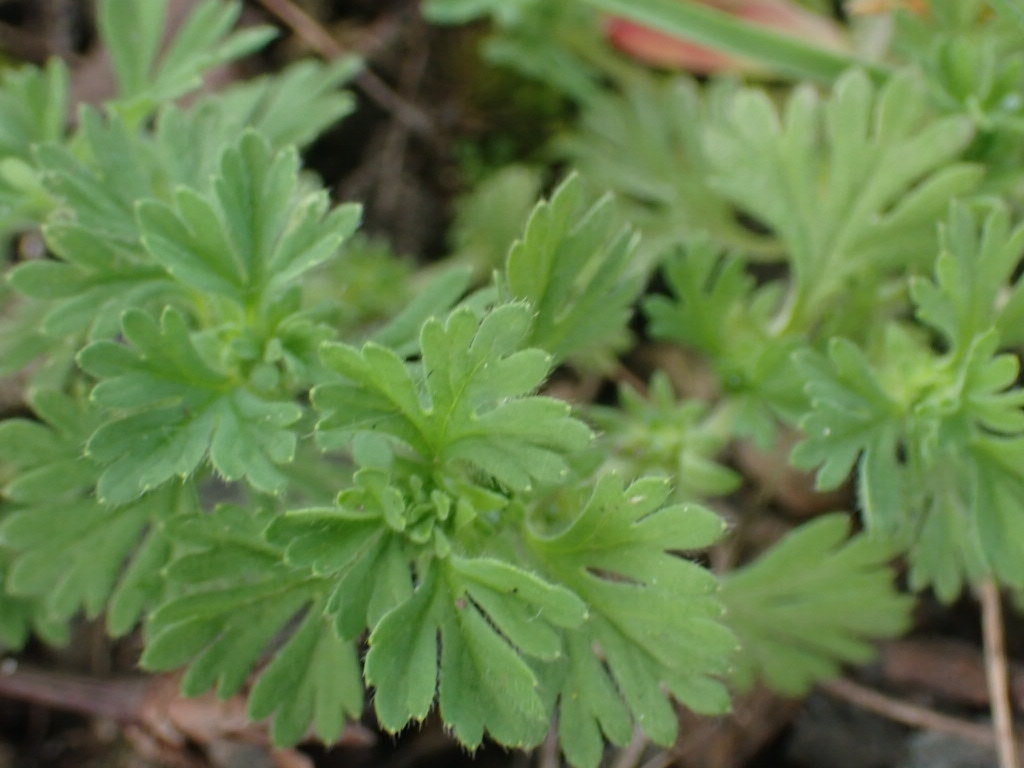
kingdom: Plantae
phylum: Tracheophyta
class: Magnoliopsida
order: Rosales
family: Rosaceae
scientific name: Rosaceae
